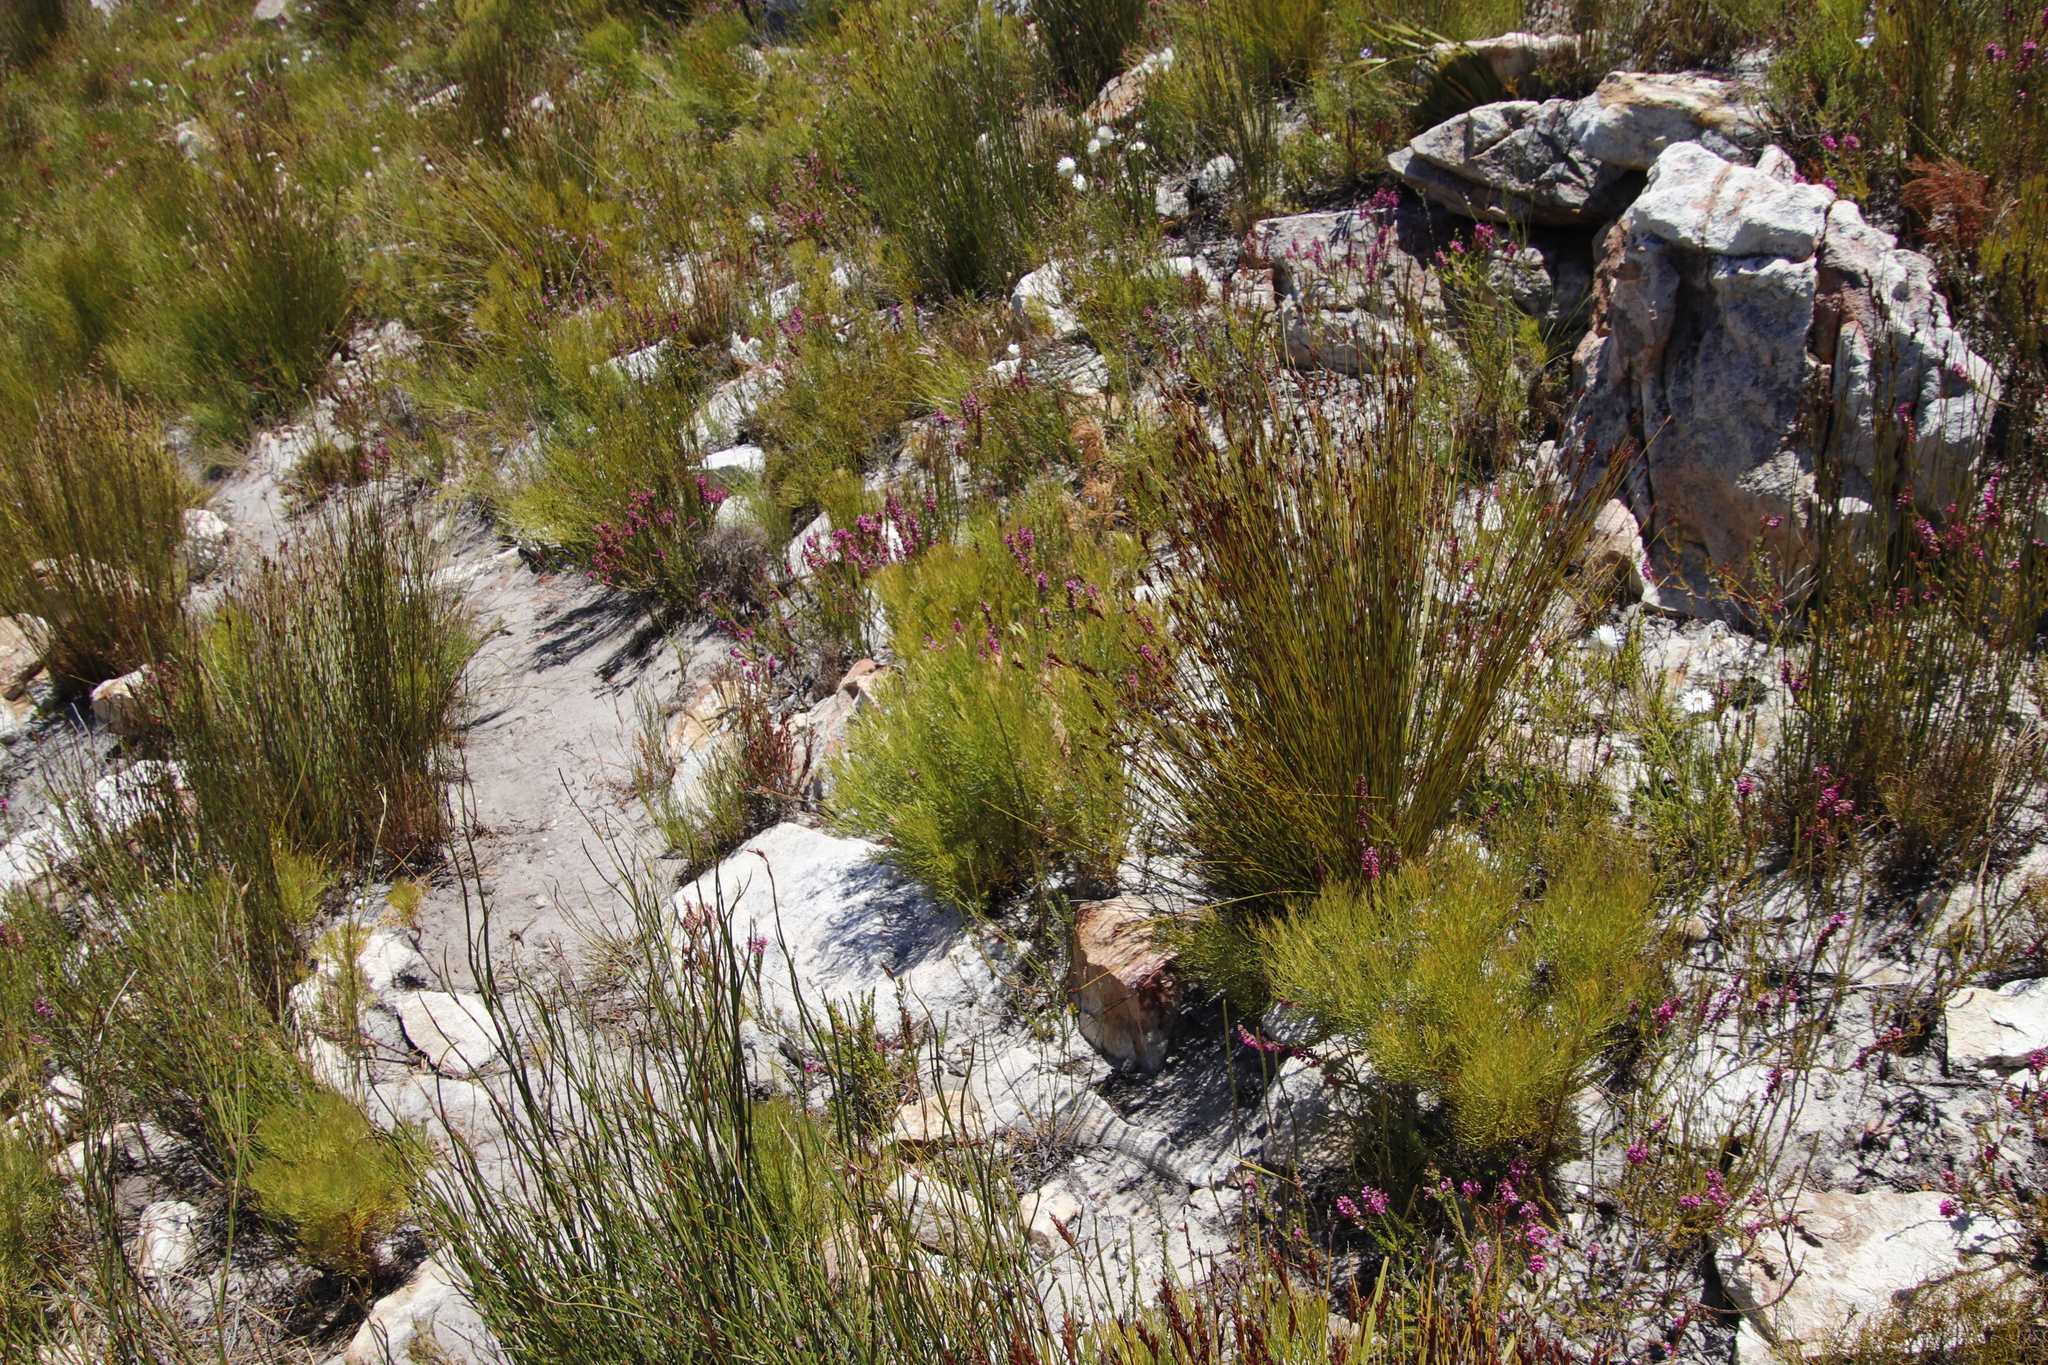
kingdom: Plantae
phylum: Tracheophyta
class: Magnoliopsida
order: Proteales
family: Proteaceae
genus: Serruria
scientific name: Serruria ascendens
